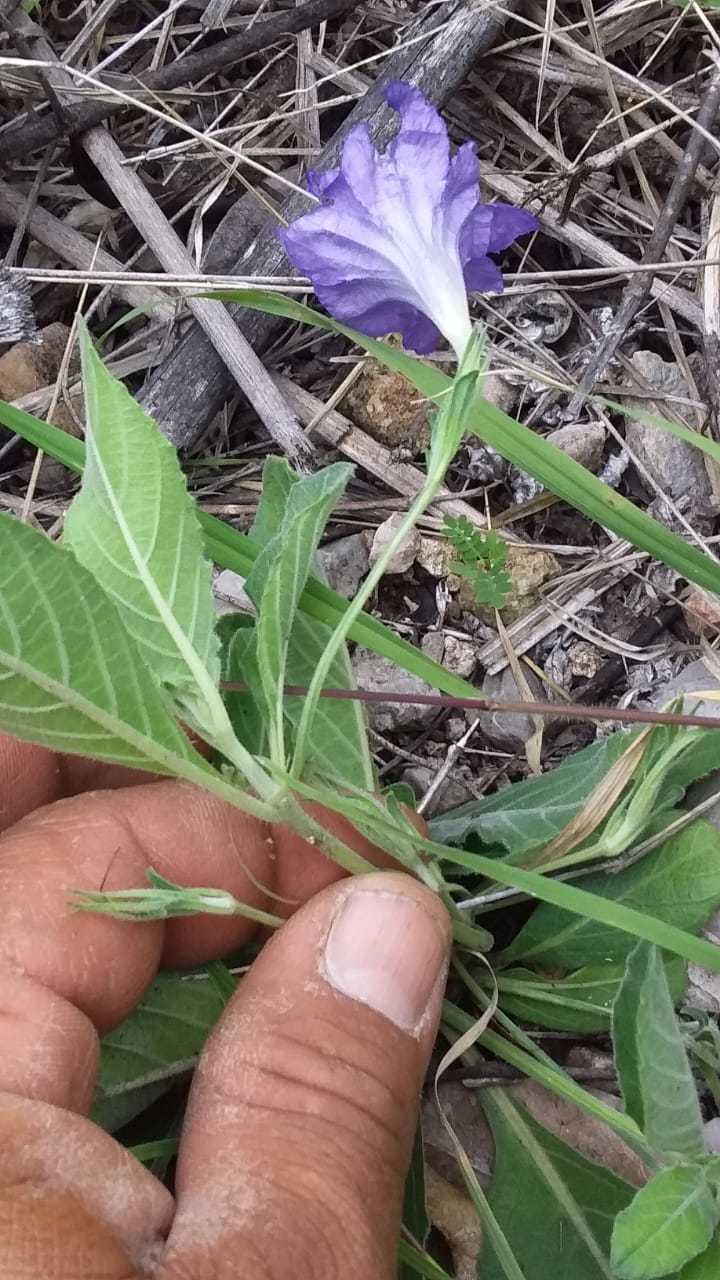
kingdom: Plantae
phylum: Tracheophyta
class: Magnoliopsida
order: Lamiales
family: Acanthaceae
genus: Ruellia
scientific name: Ruellia hookeriana
